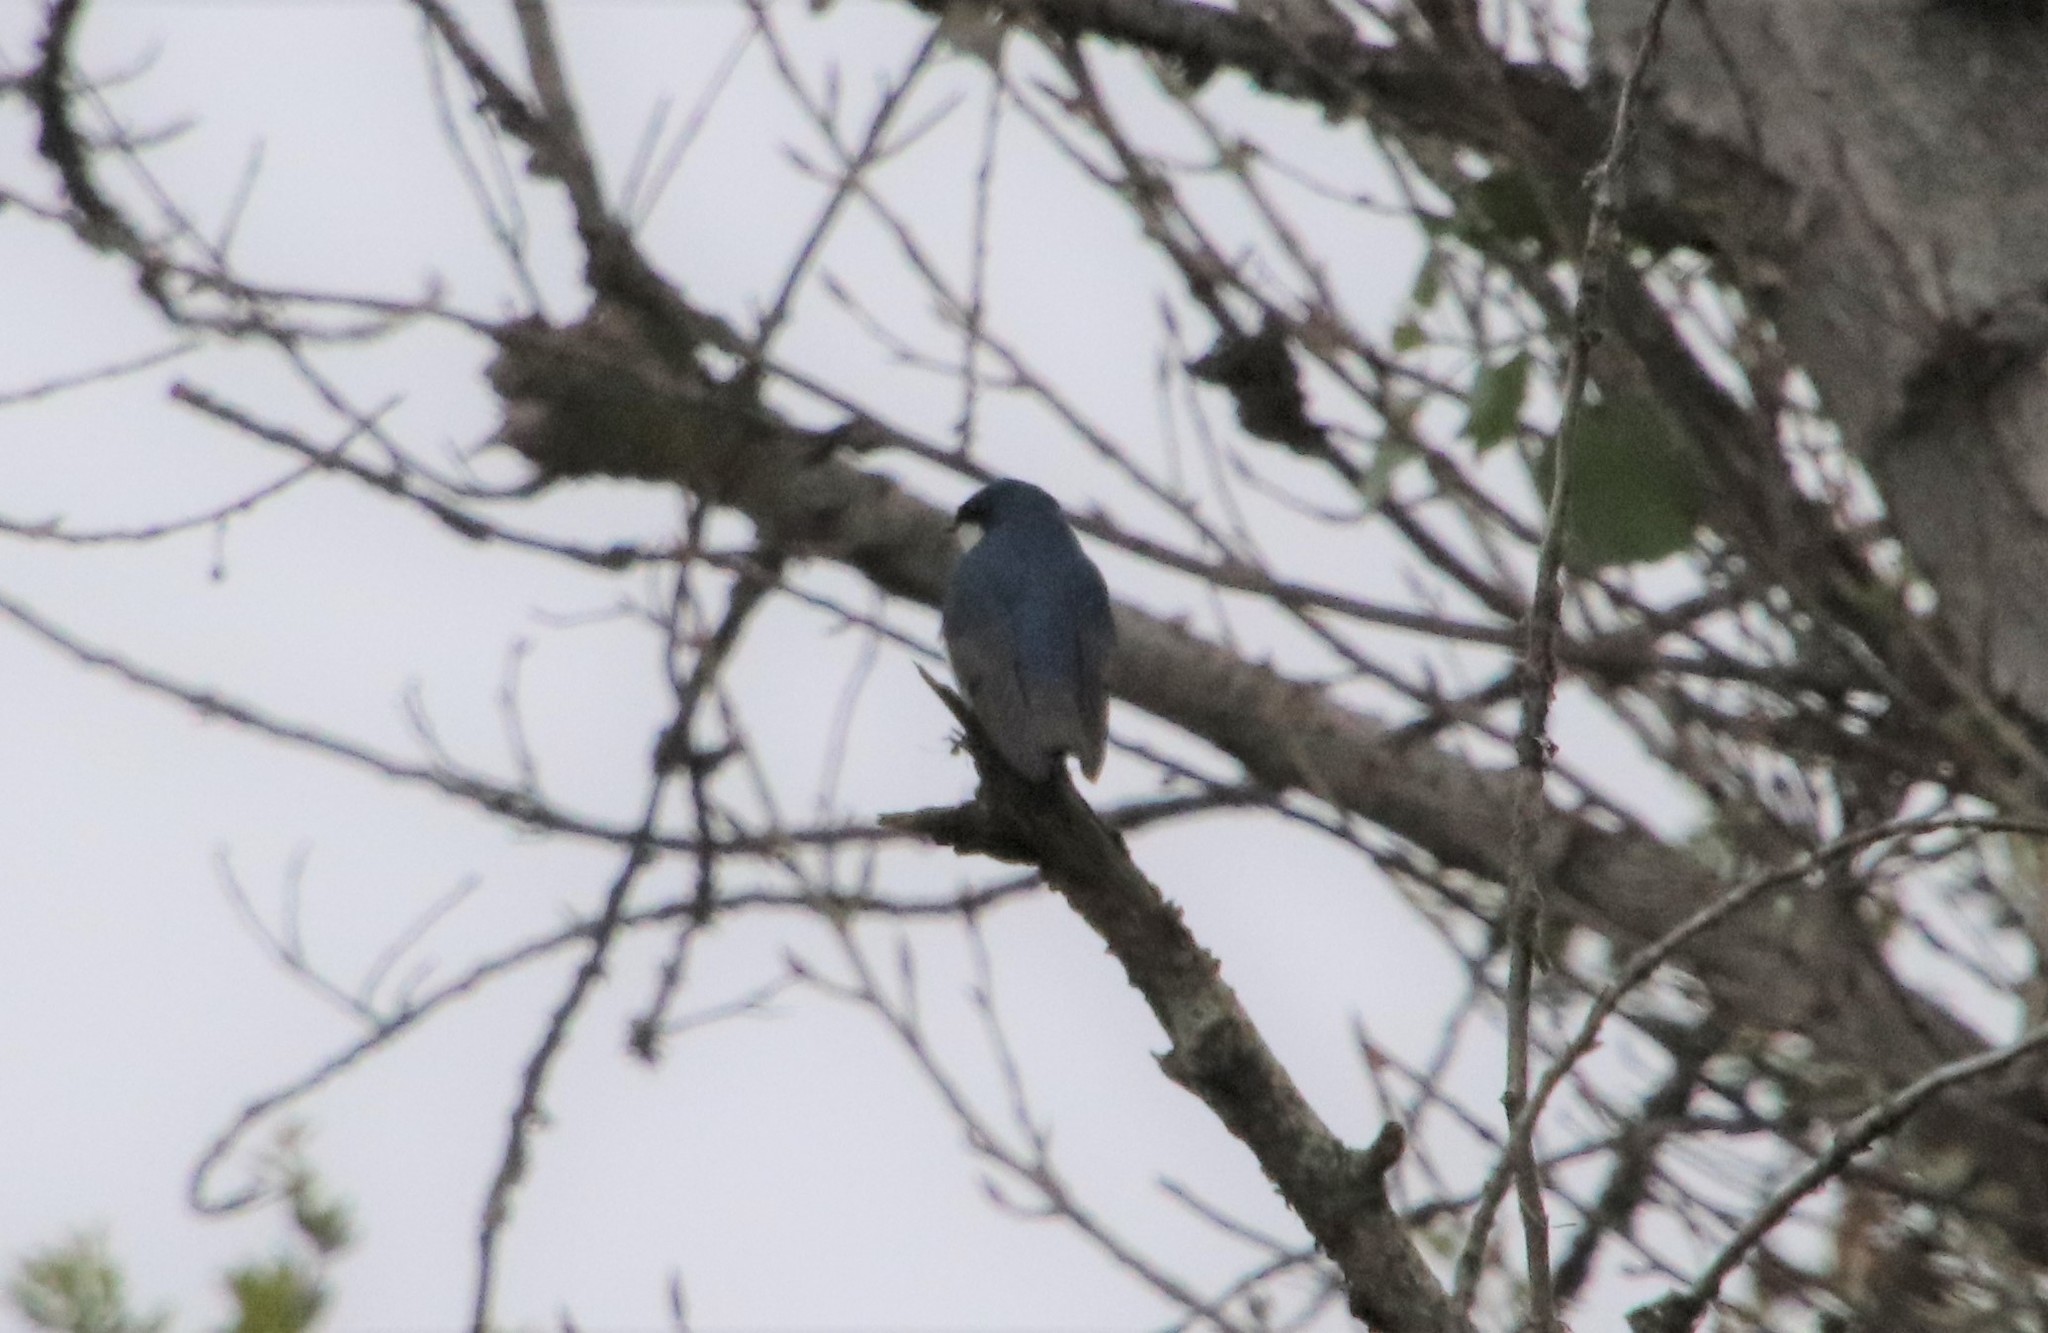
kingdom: Animalia
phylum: Chordata
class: Aves
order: Passeriformes
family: Hirundinidae
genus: Tachycineta
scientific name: Tachycineta bicolor
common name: Tree swallow
